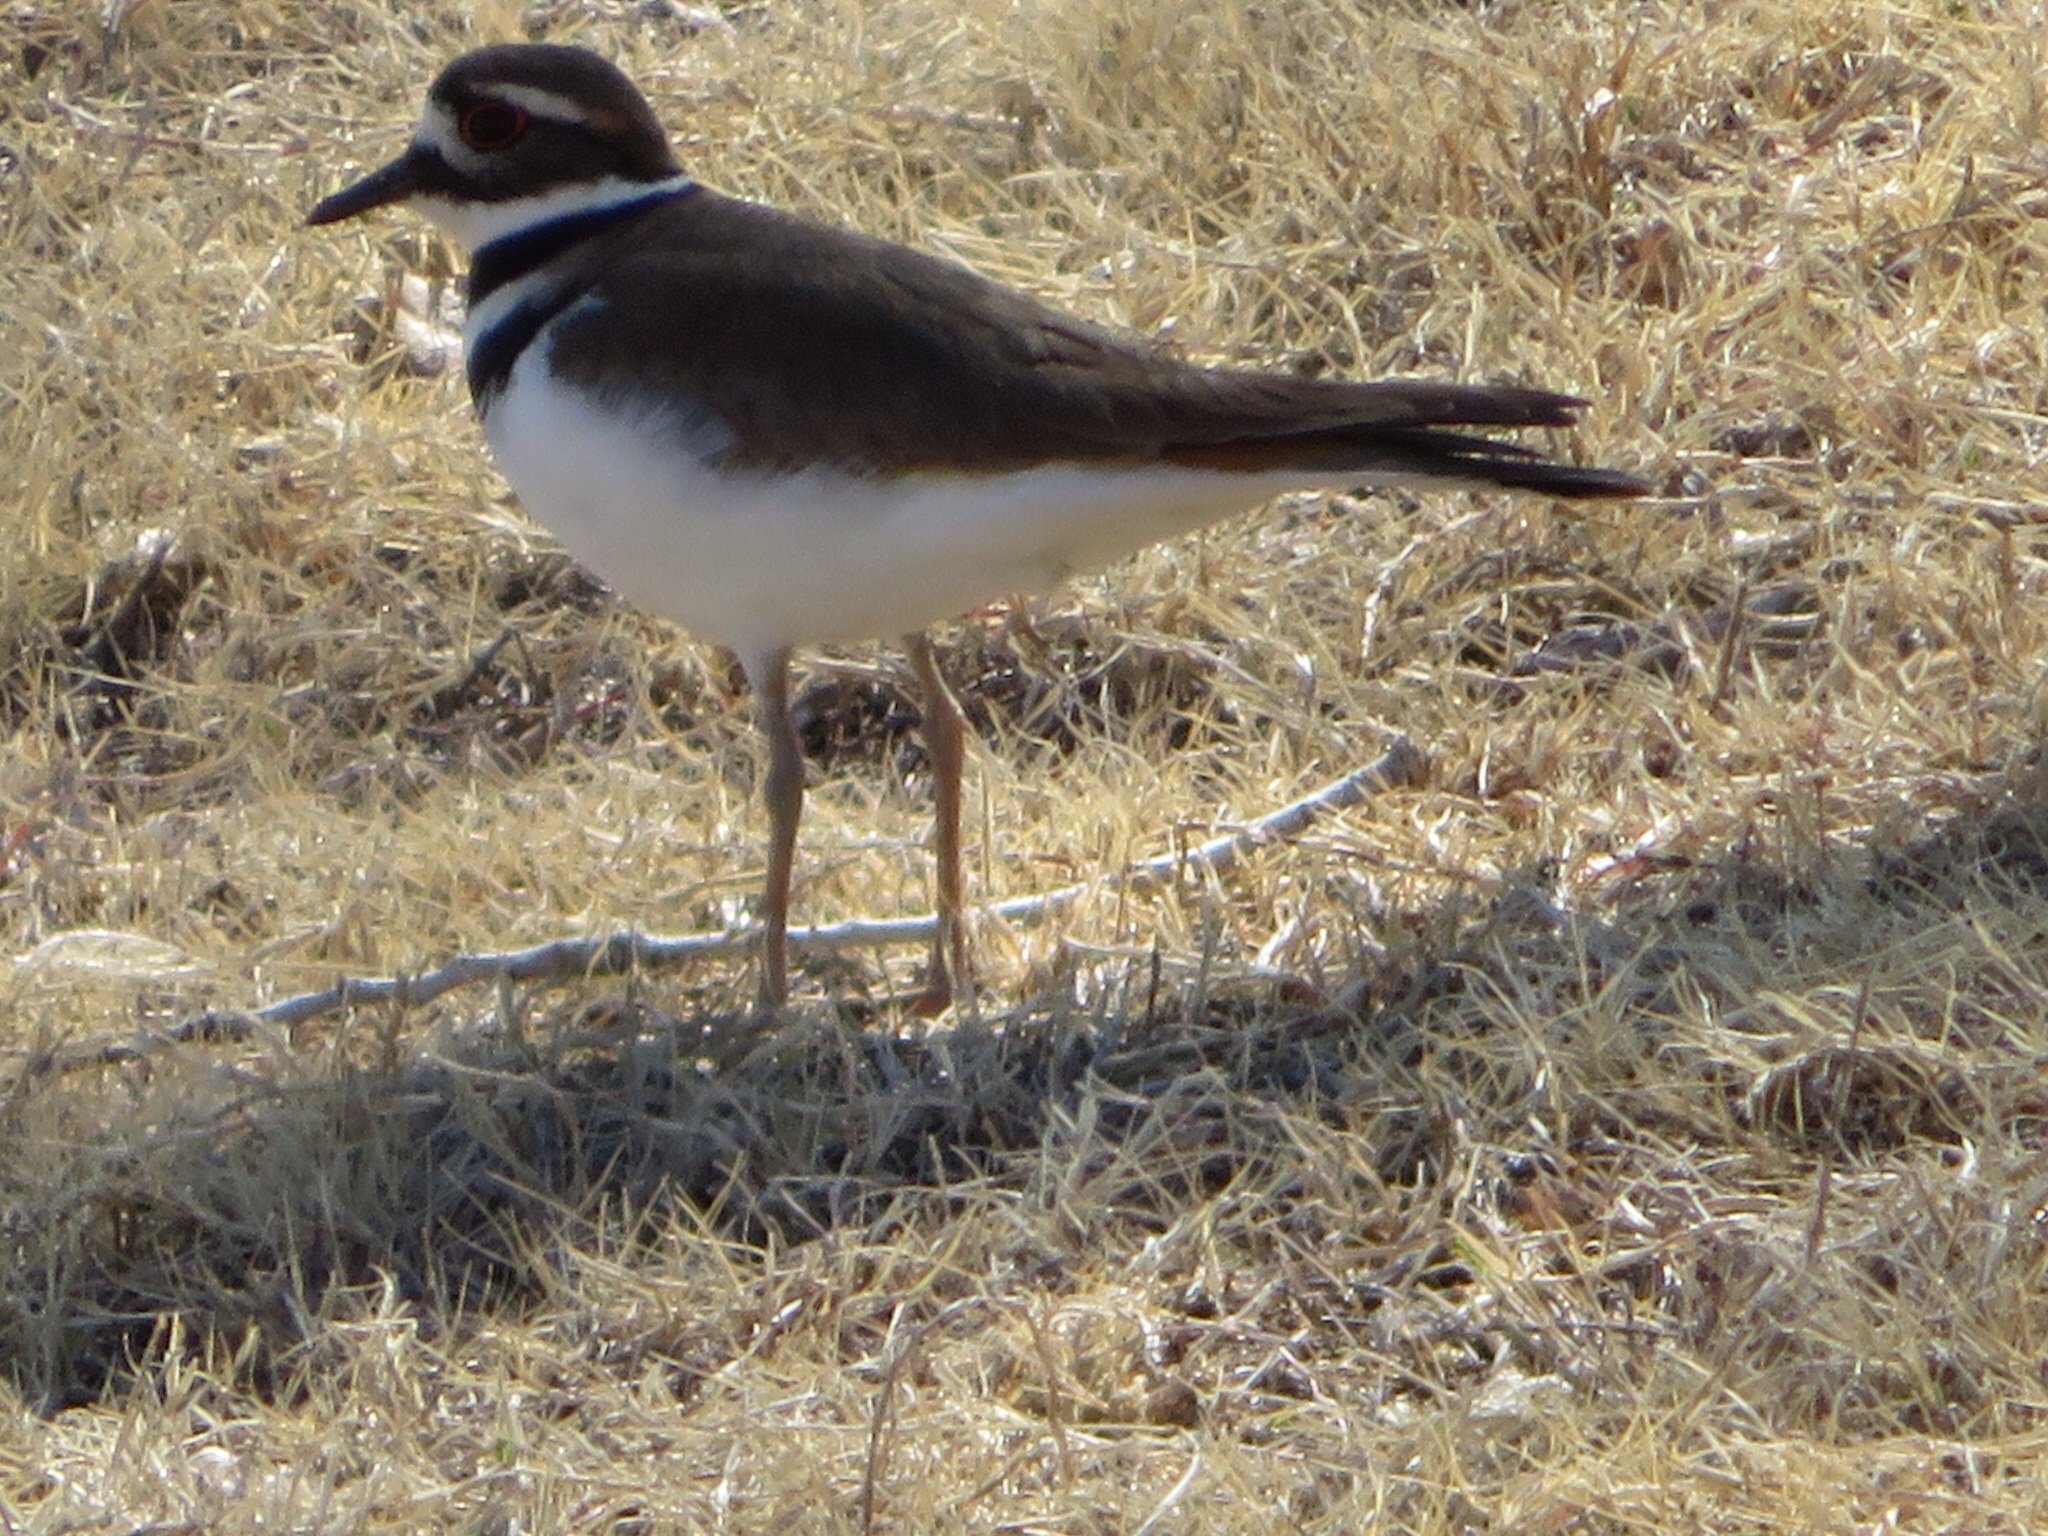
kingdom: Animalia
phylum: Chordata
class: Aves
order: Charadriiformes
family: Charadriidae
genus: Charadrius
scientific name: Charadrius vociferus
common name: Killdeer
